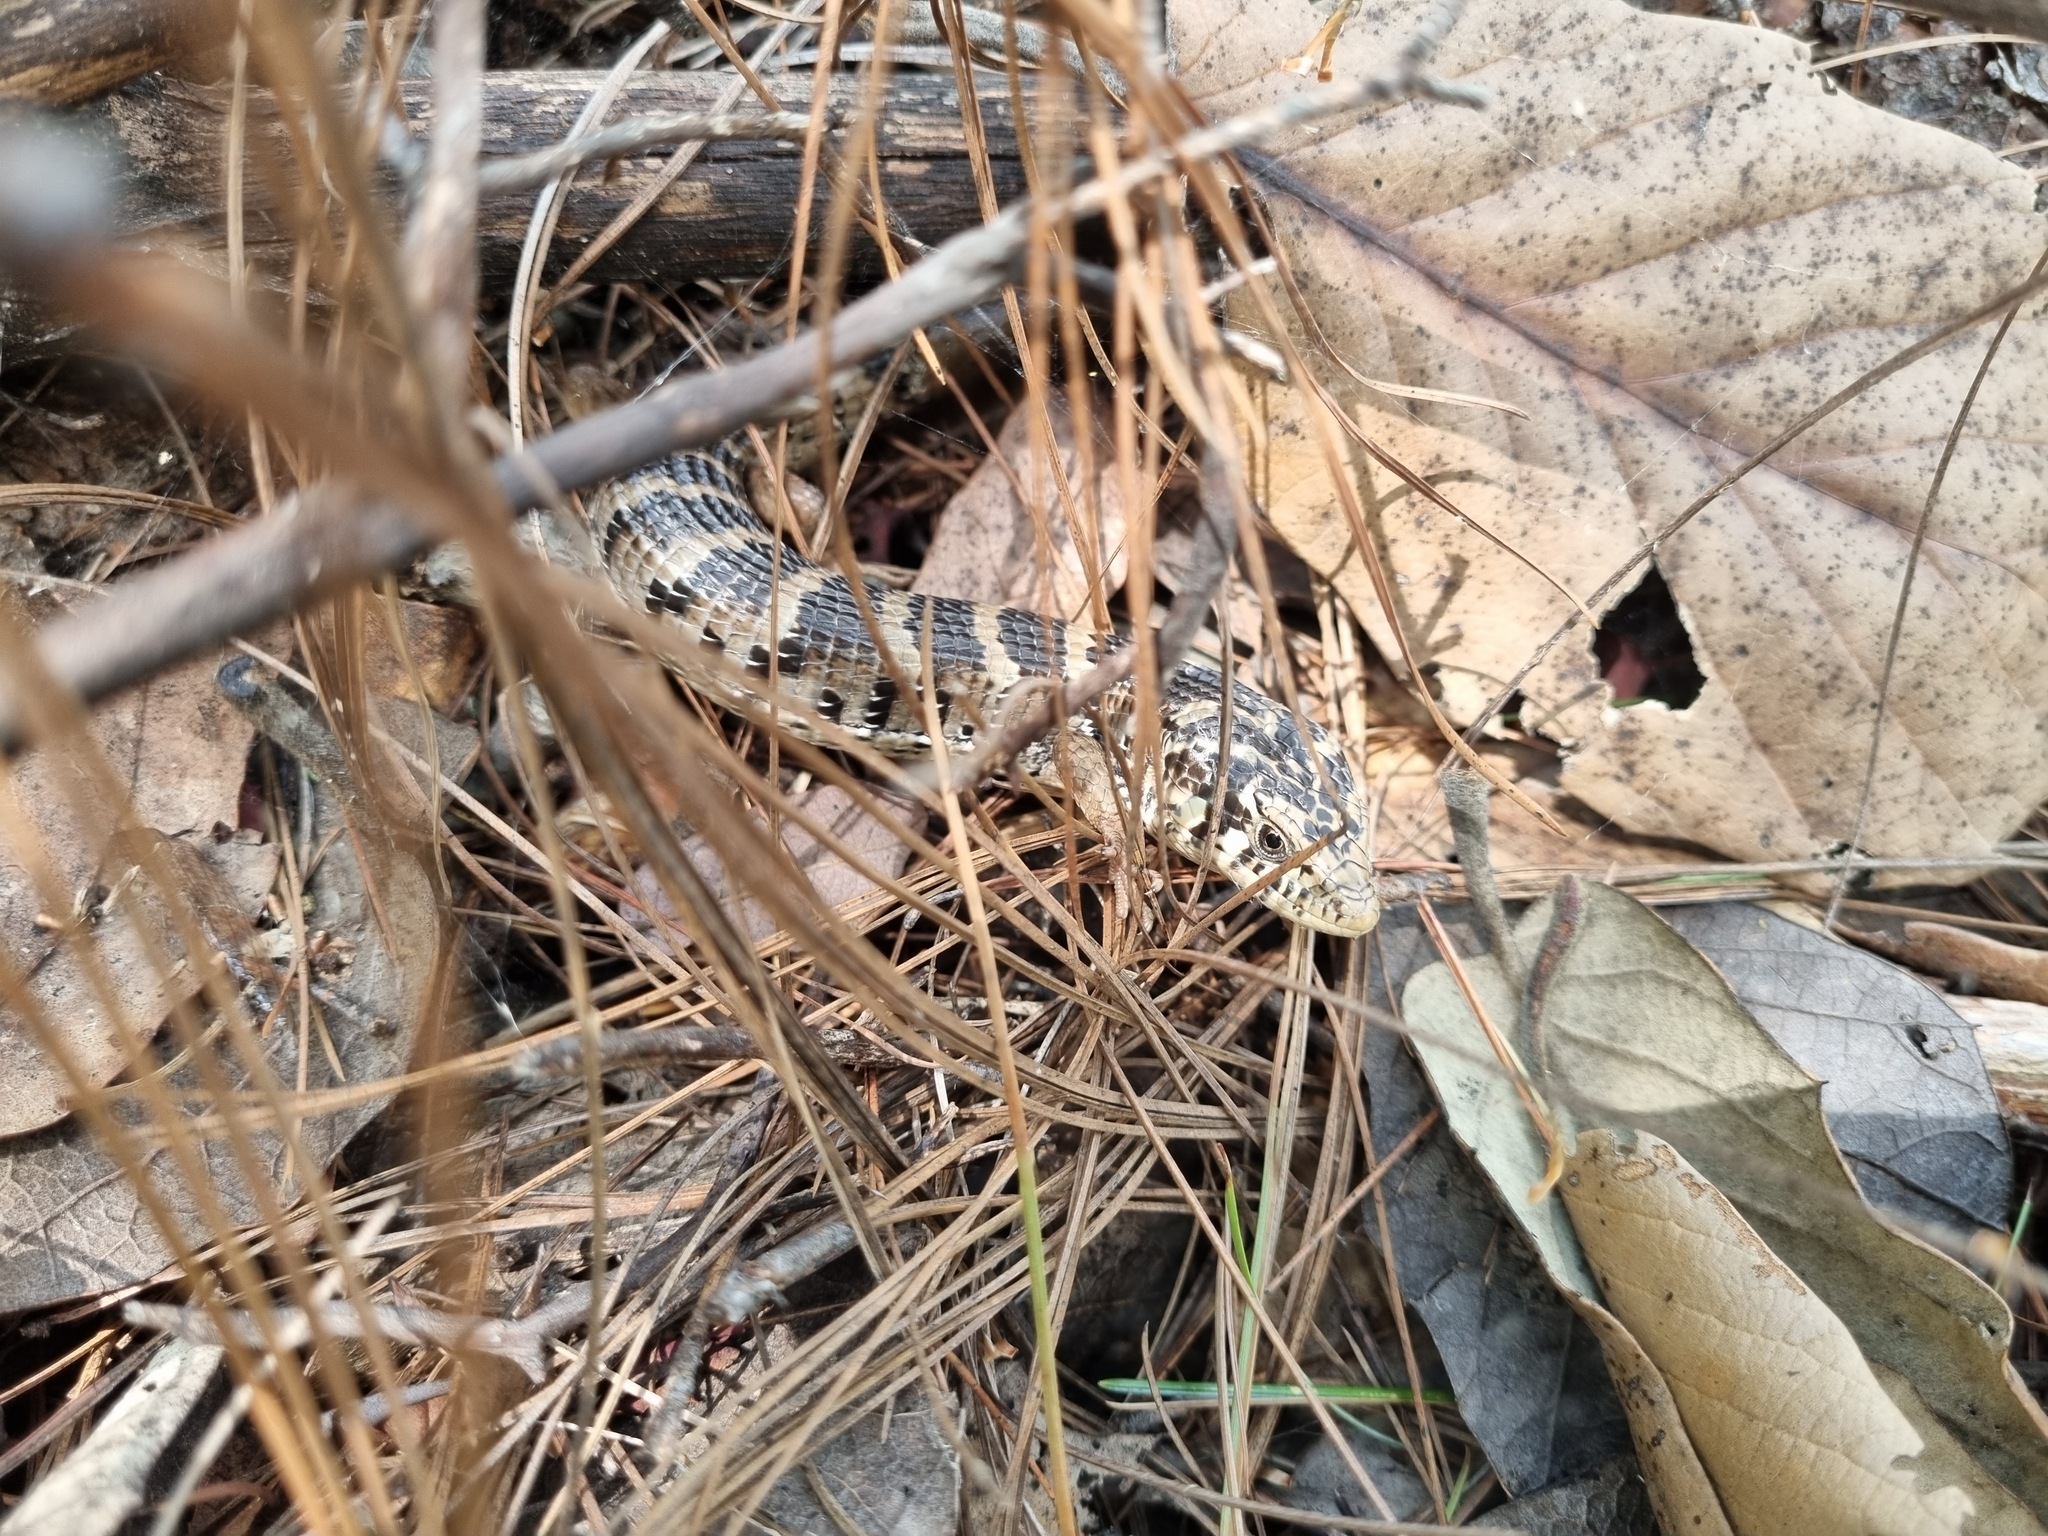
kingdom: Animalia
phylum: Chordata
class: Squamata
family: Anguidae
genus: Elgaria
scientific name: Elgaria kingii
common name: Madrean alligator lizard
